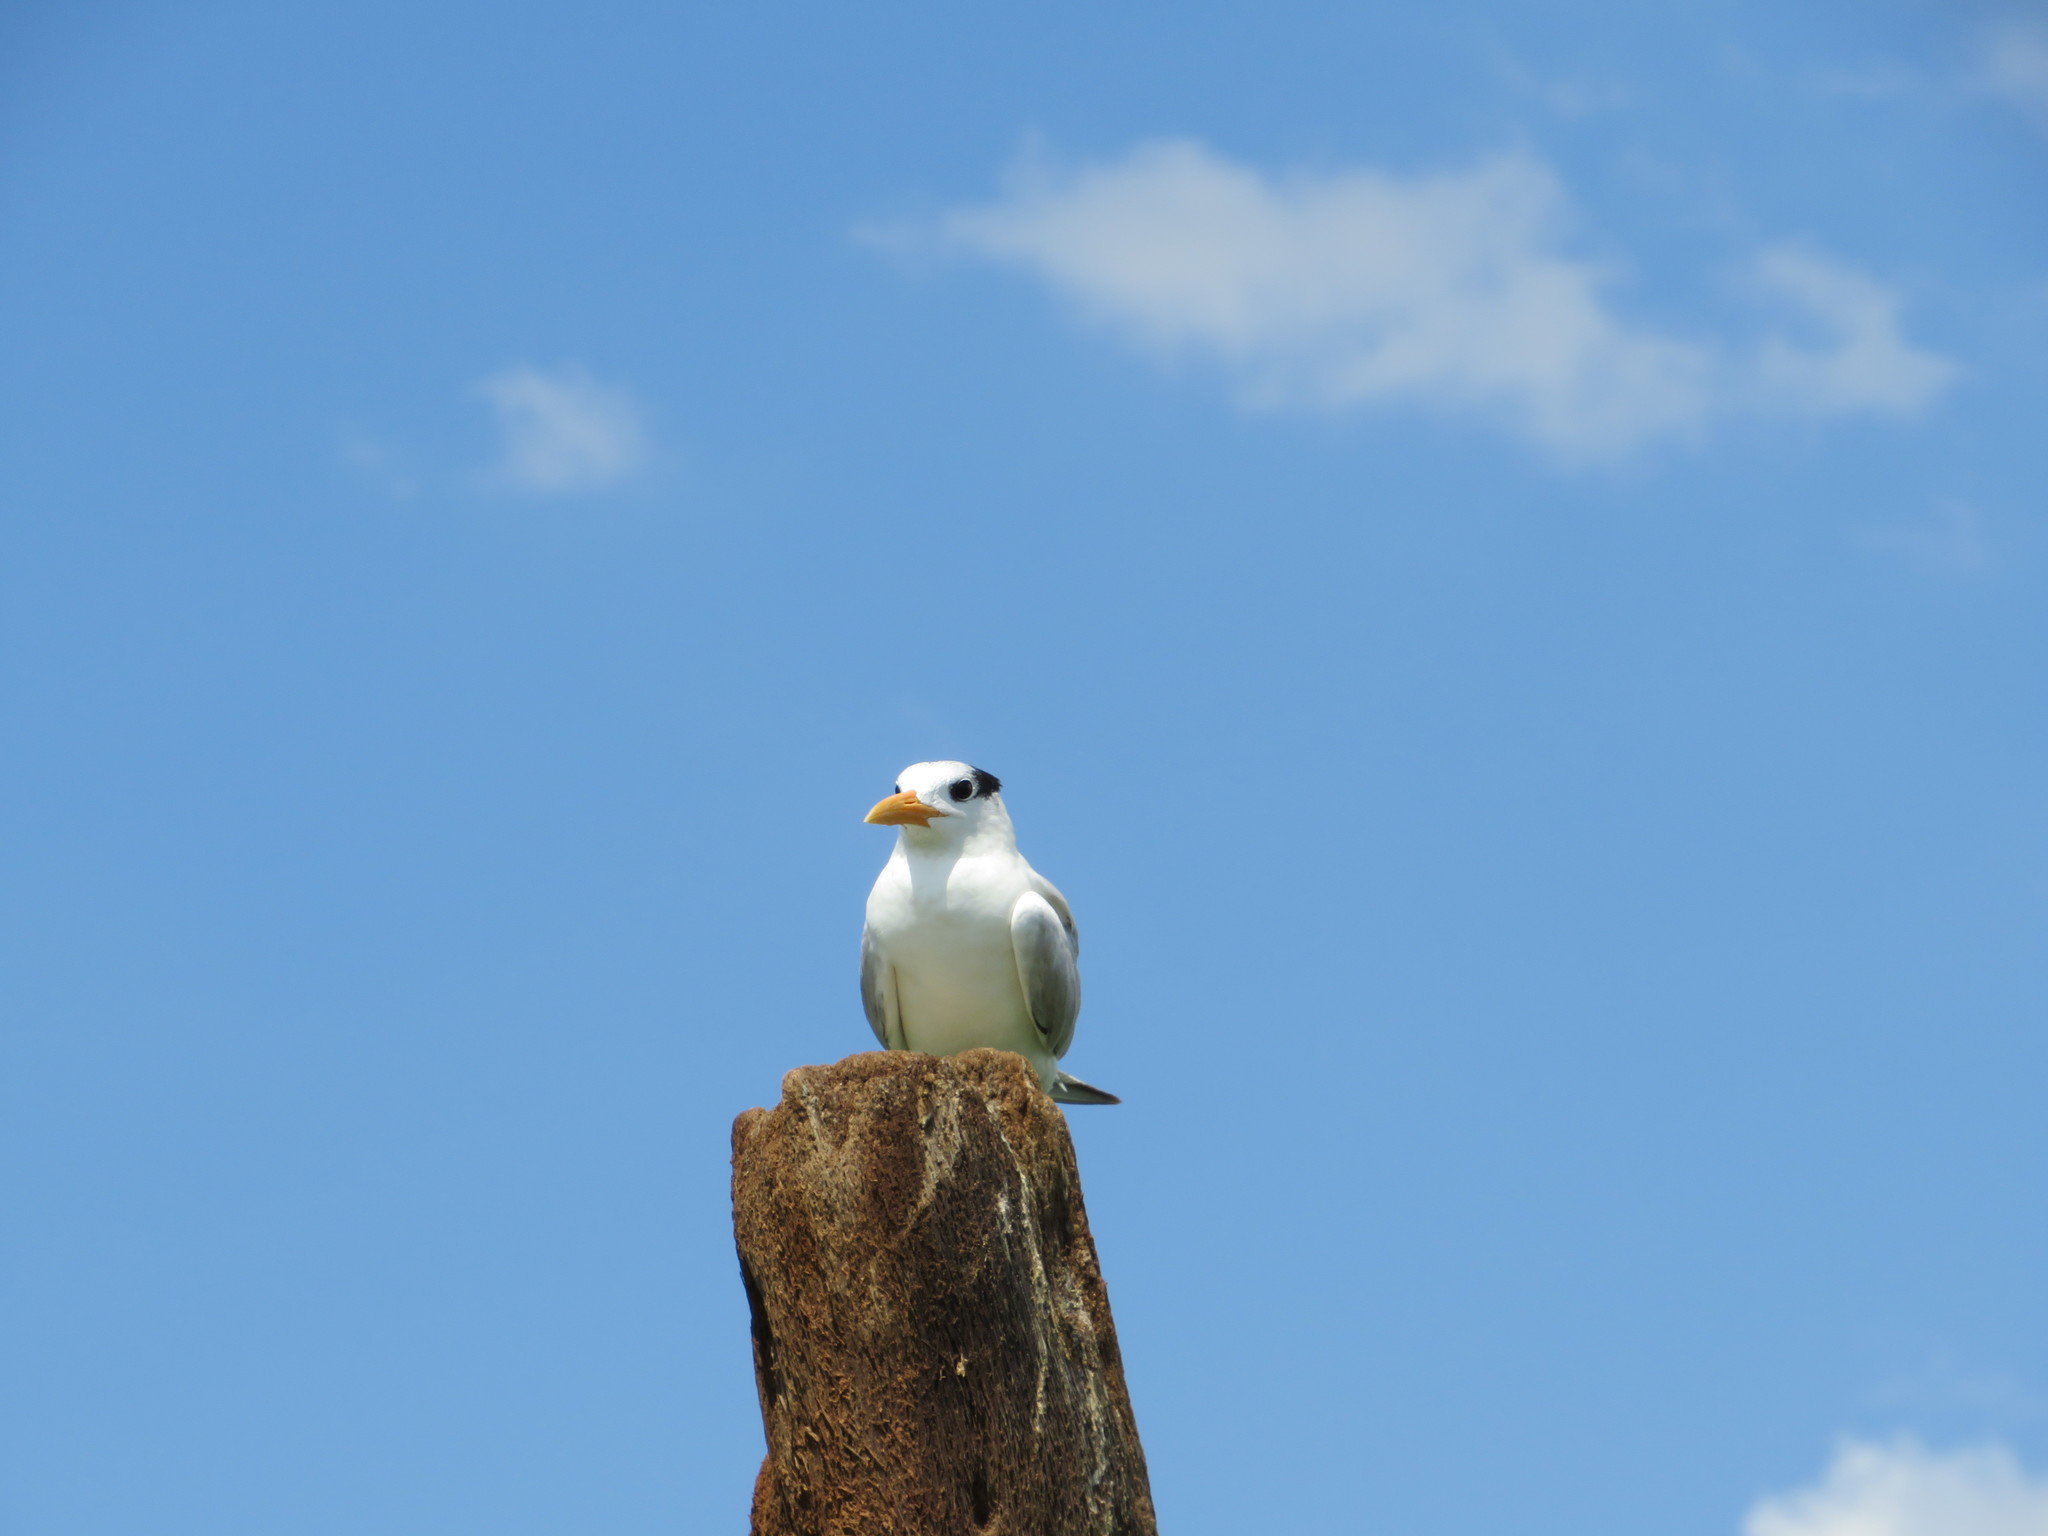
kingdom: Animalia
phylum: Chordata
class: Aves
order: Charadriiformes
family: Laridae
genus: Thalasseus
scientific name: Thalasseus maximus
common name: Royal tern
